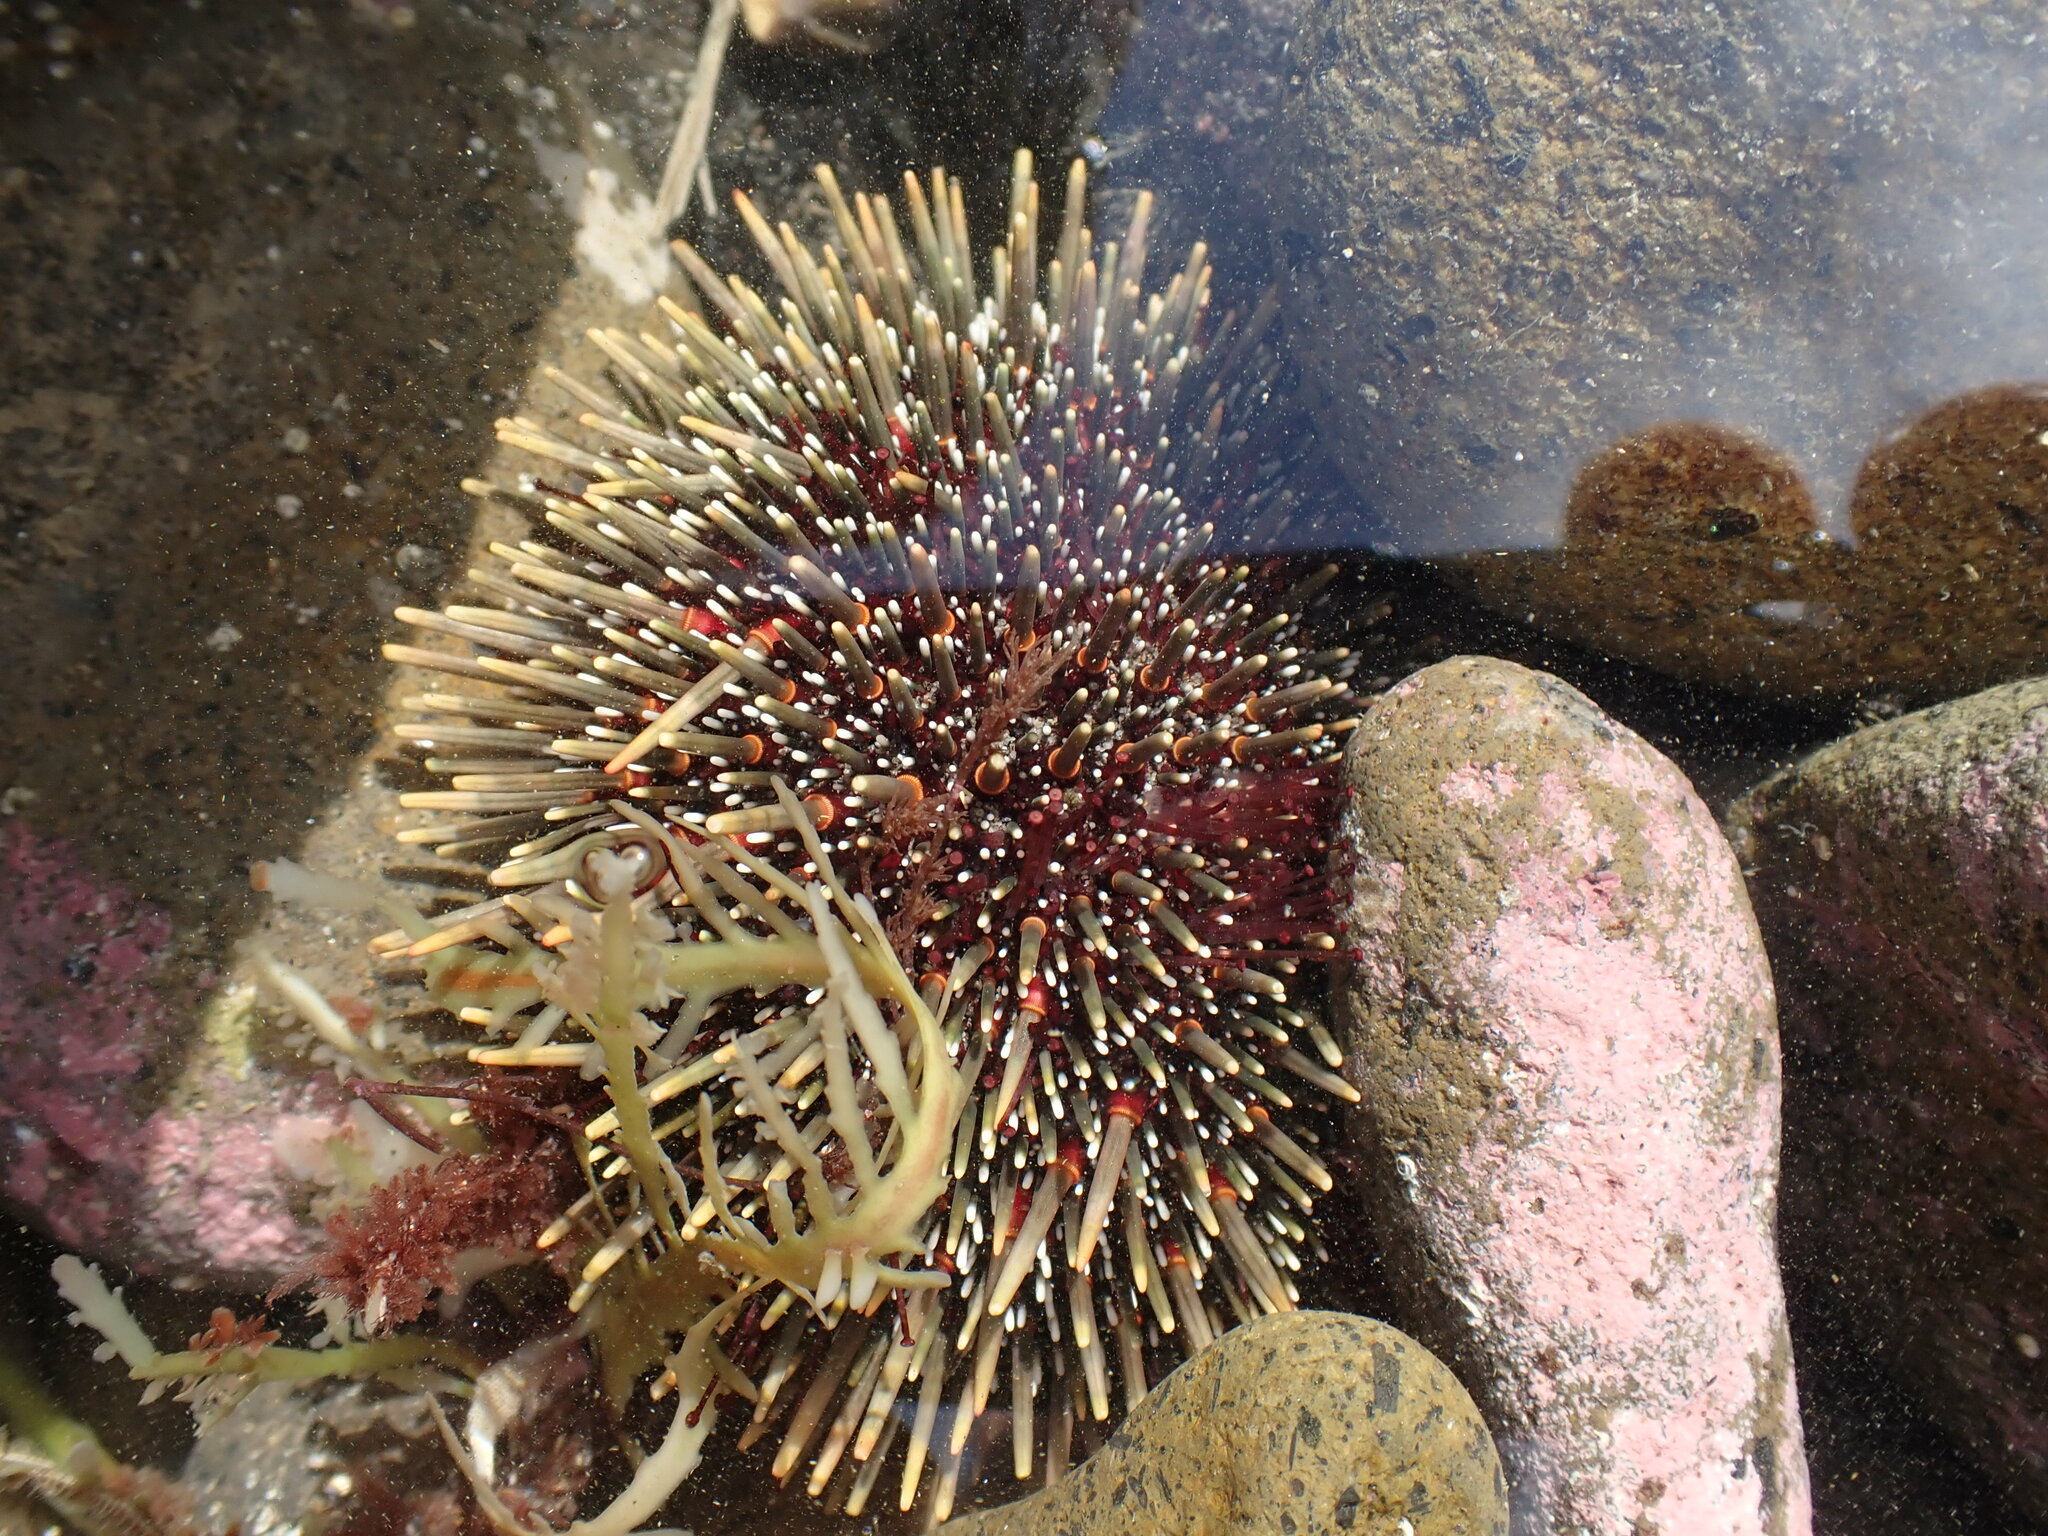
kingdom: Animalia
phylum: Echinodermata
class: Echinoidea
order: Camarodonta
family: Echinometridae
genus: Evechinus
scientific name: Evechinus chloroticus
